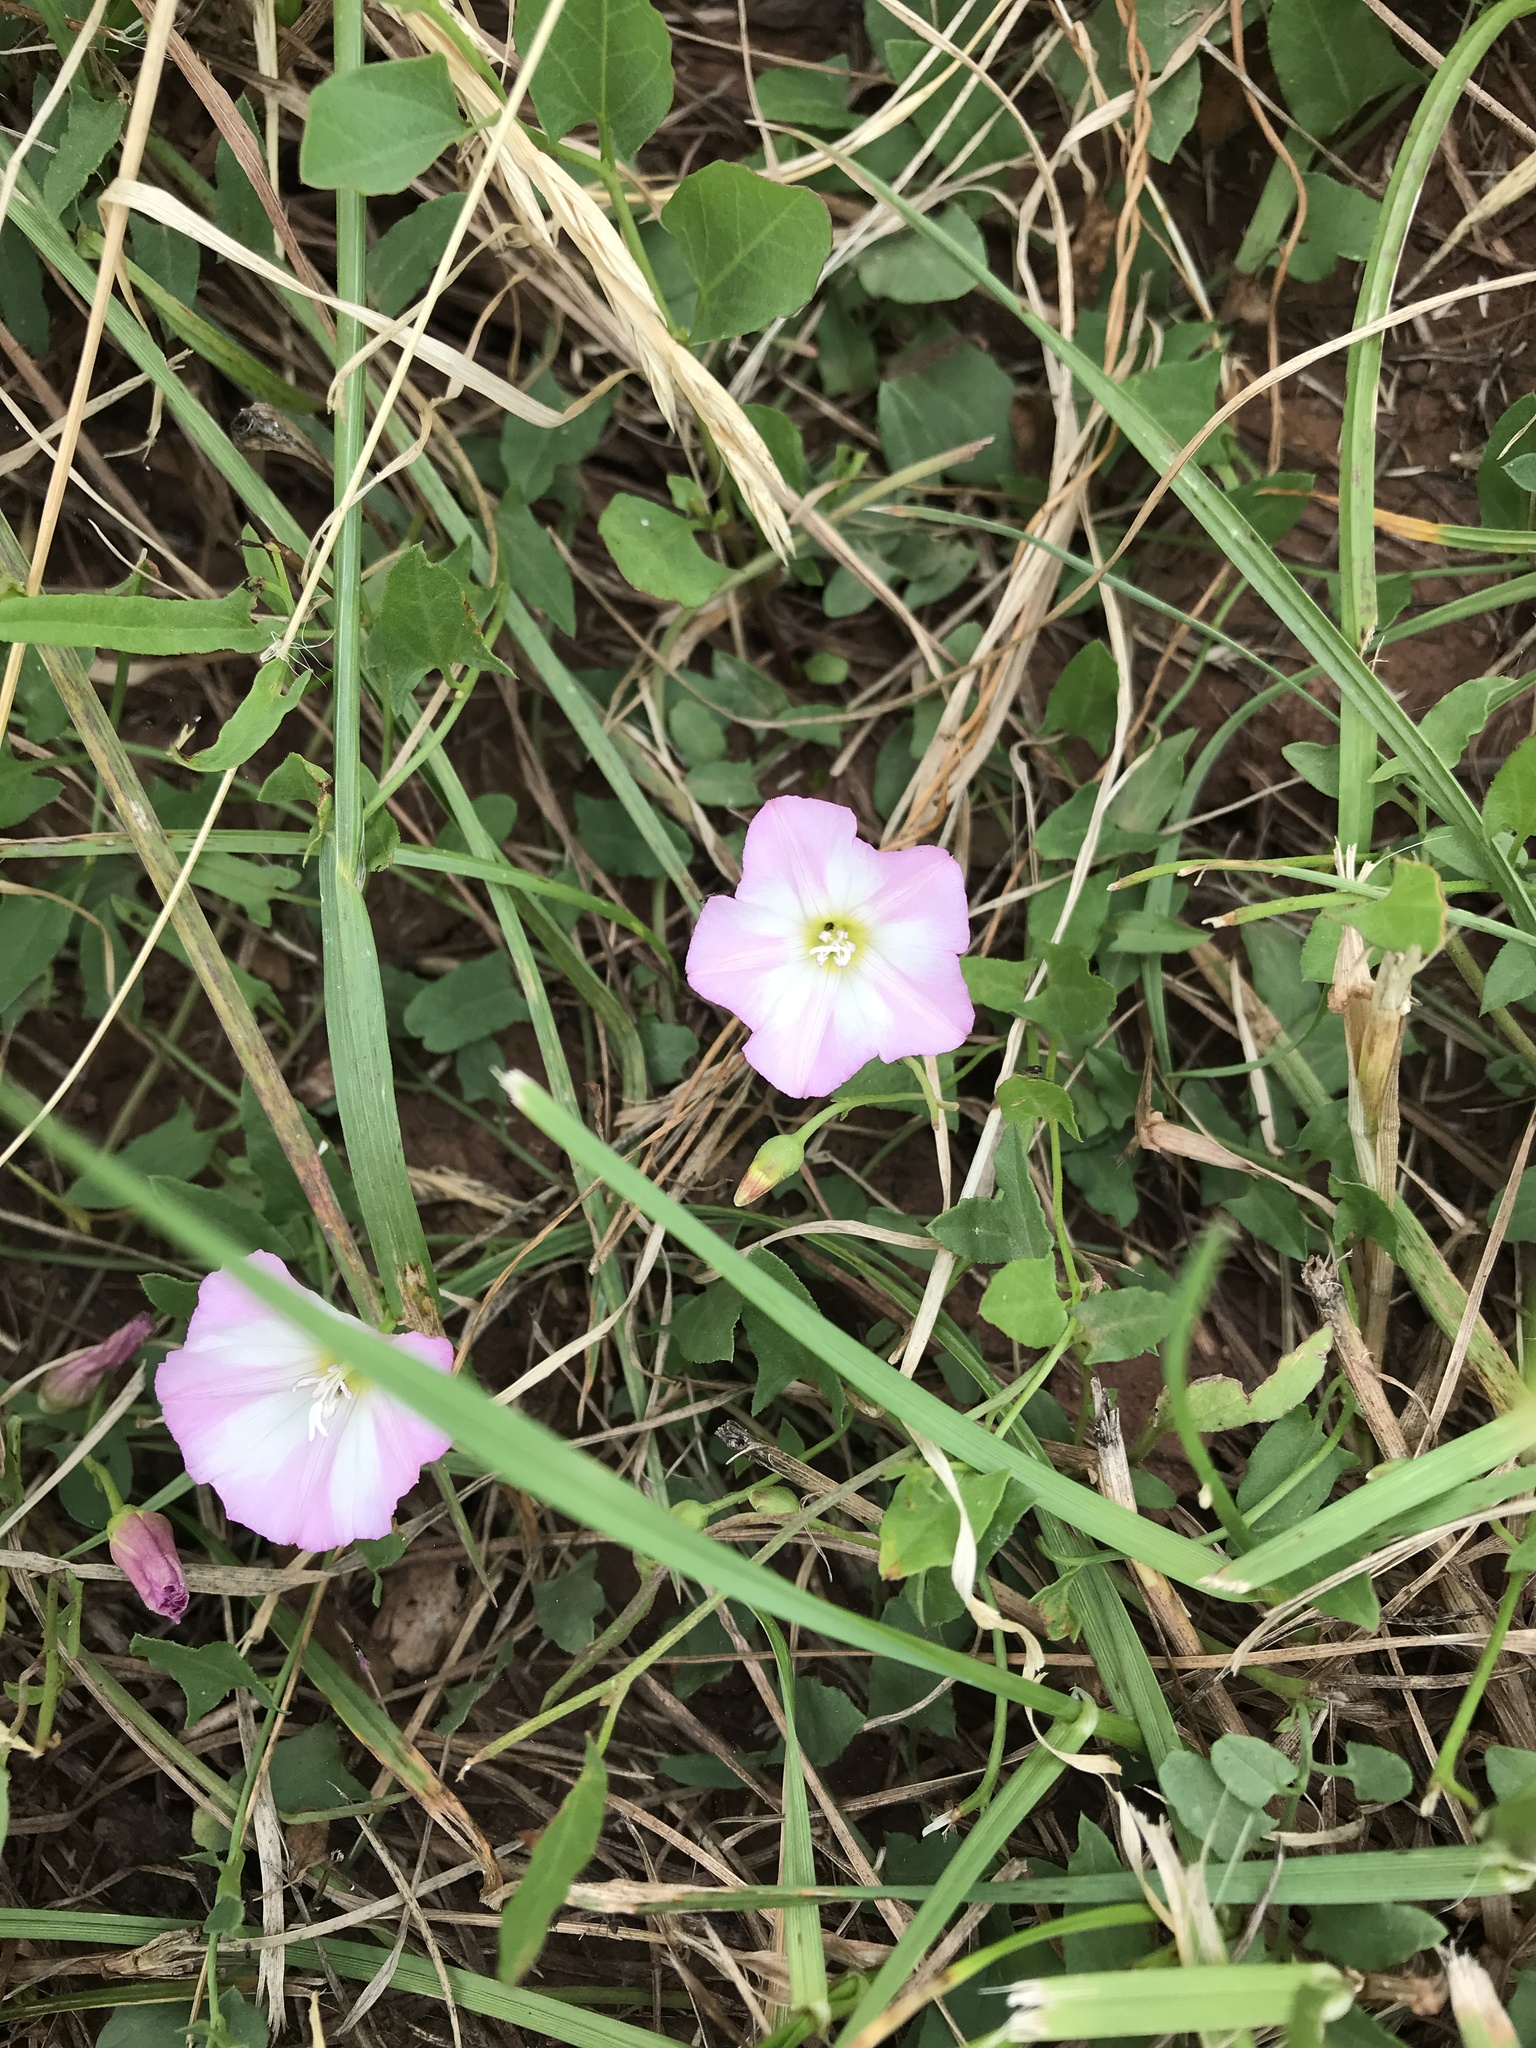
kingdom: Plantae
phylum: Tracheophyta
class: Magnoliopsida
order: Solanales
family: Convolvulaceae
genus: Convolvulus
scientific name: Convolvulus arvensis
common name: Field bindweed
